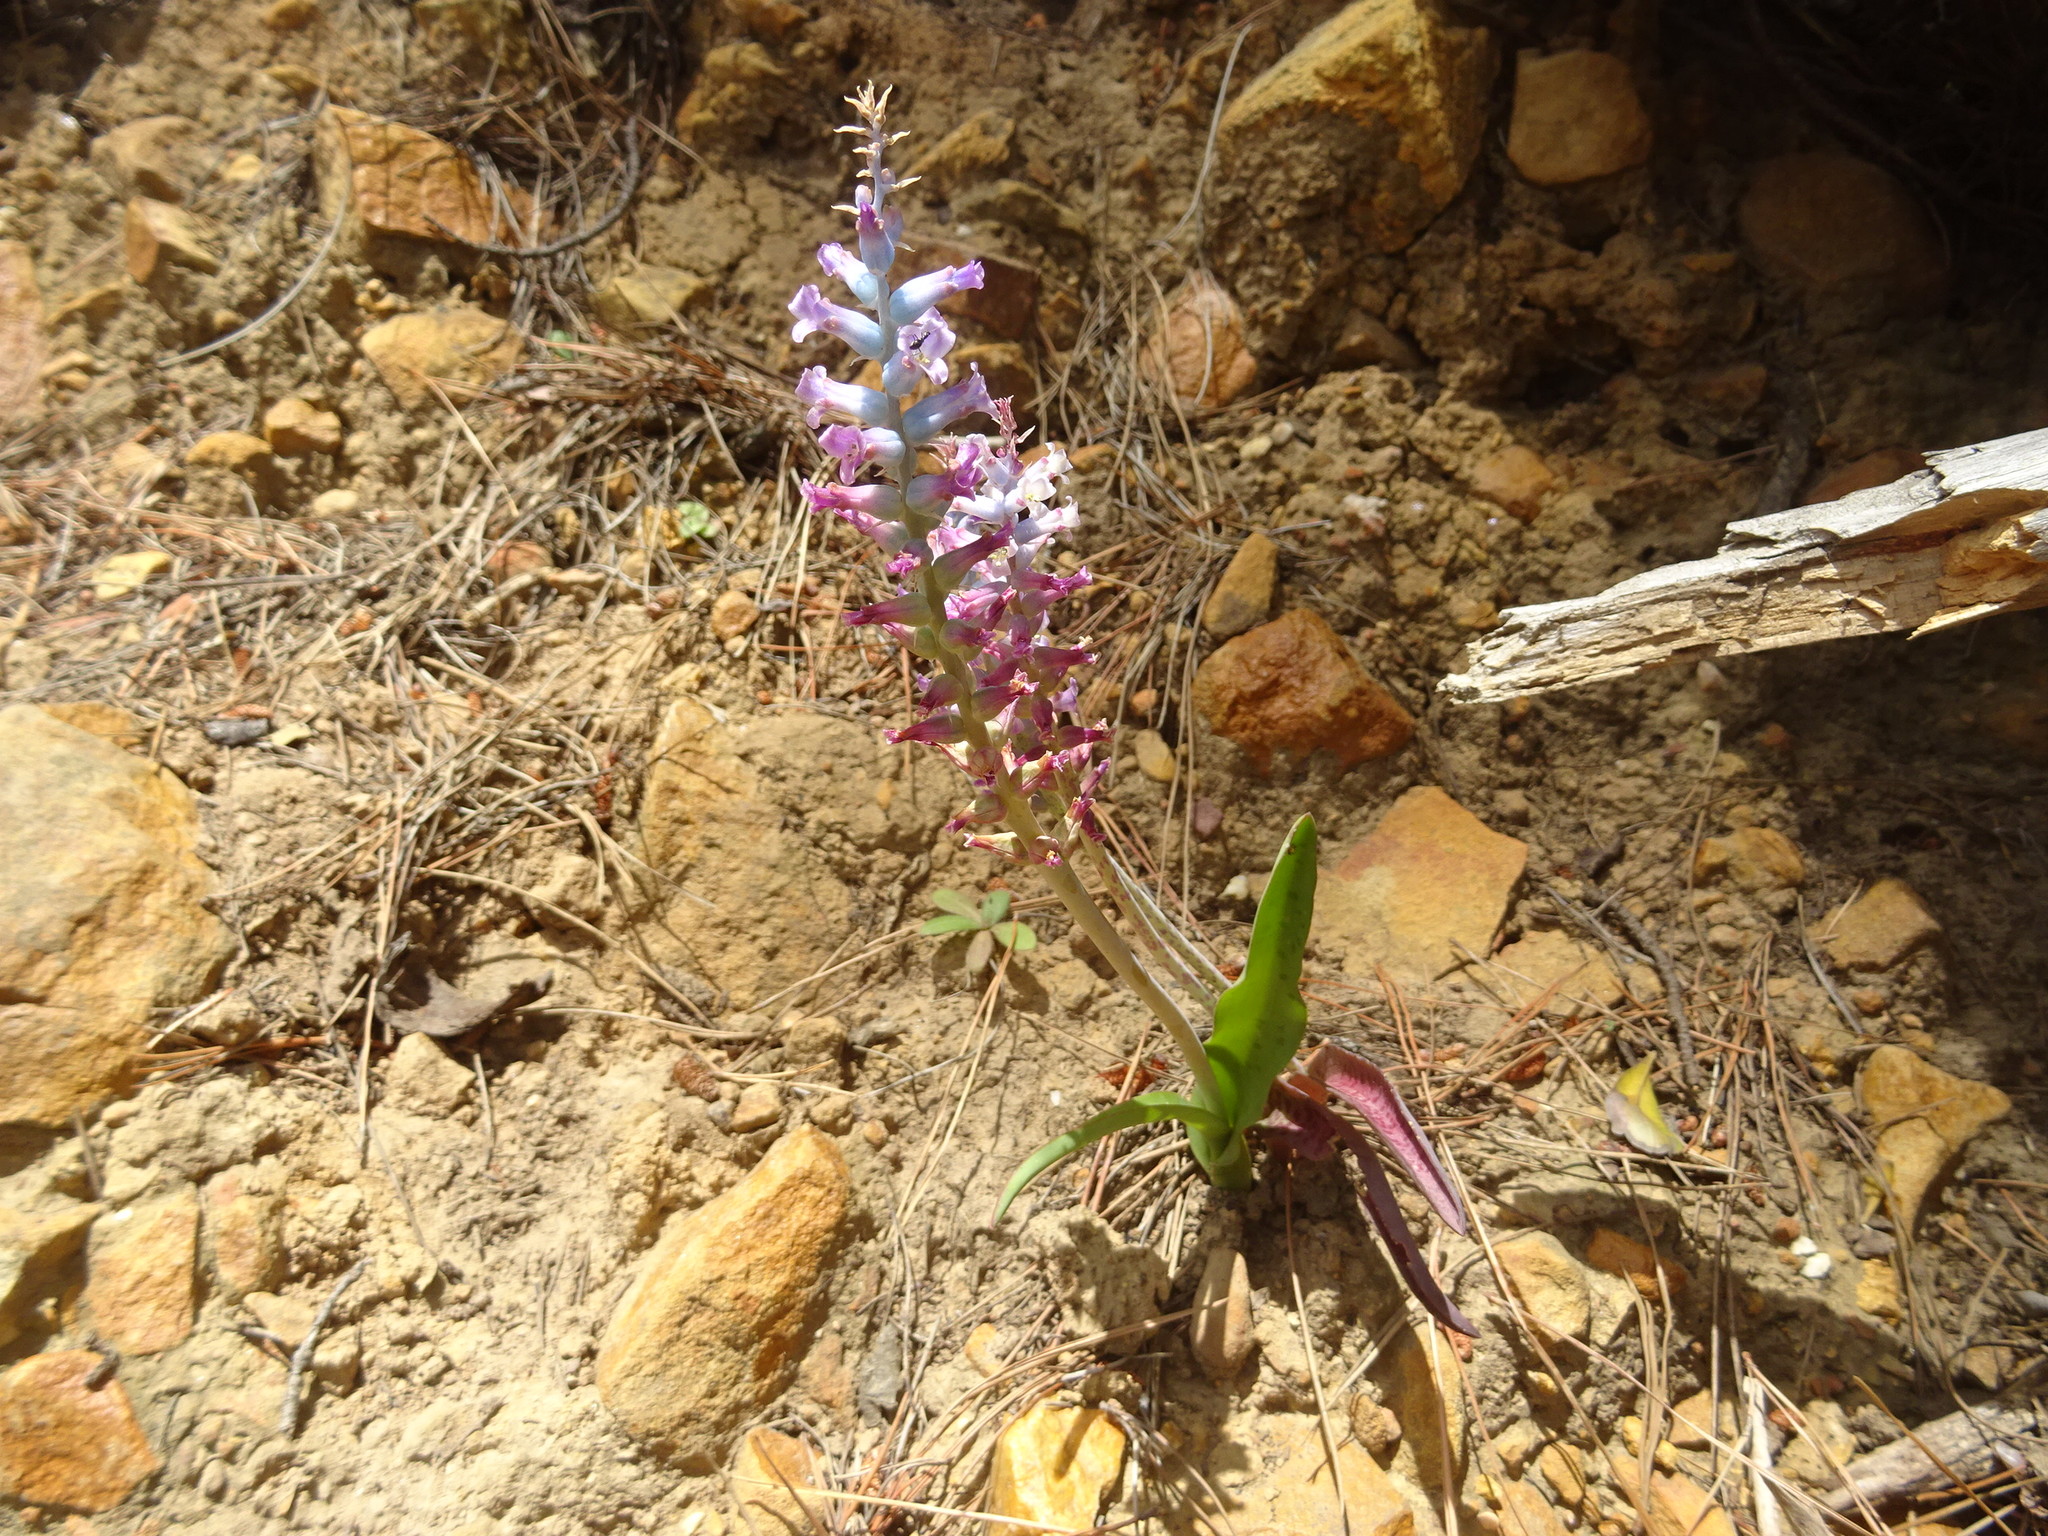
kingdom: Plantae
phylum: Tracheophyta
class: Liliopsida
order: Asparagales
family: Asparagaceae
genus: Lachenalia
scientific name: Lachenalia
